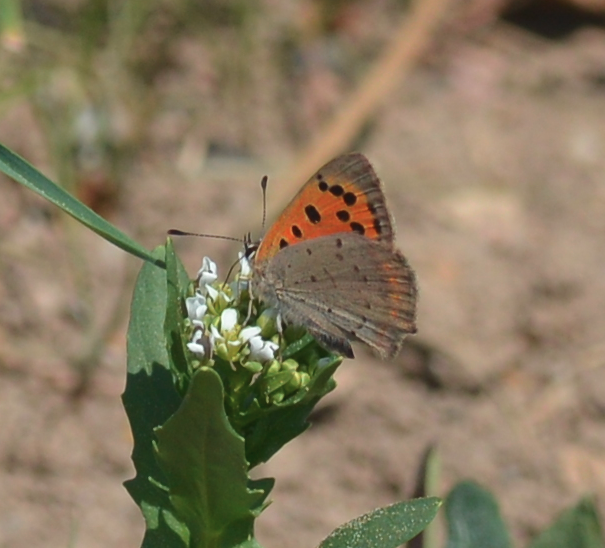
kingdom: Animalia
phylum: Arthropoda
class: Insecta
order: Lepidoptera
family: Lycaenidae
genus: Lycaena
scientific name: Lycaena phlaeas
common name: Small copper
